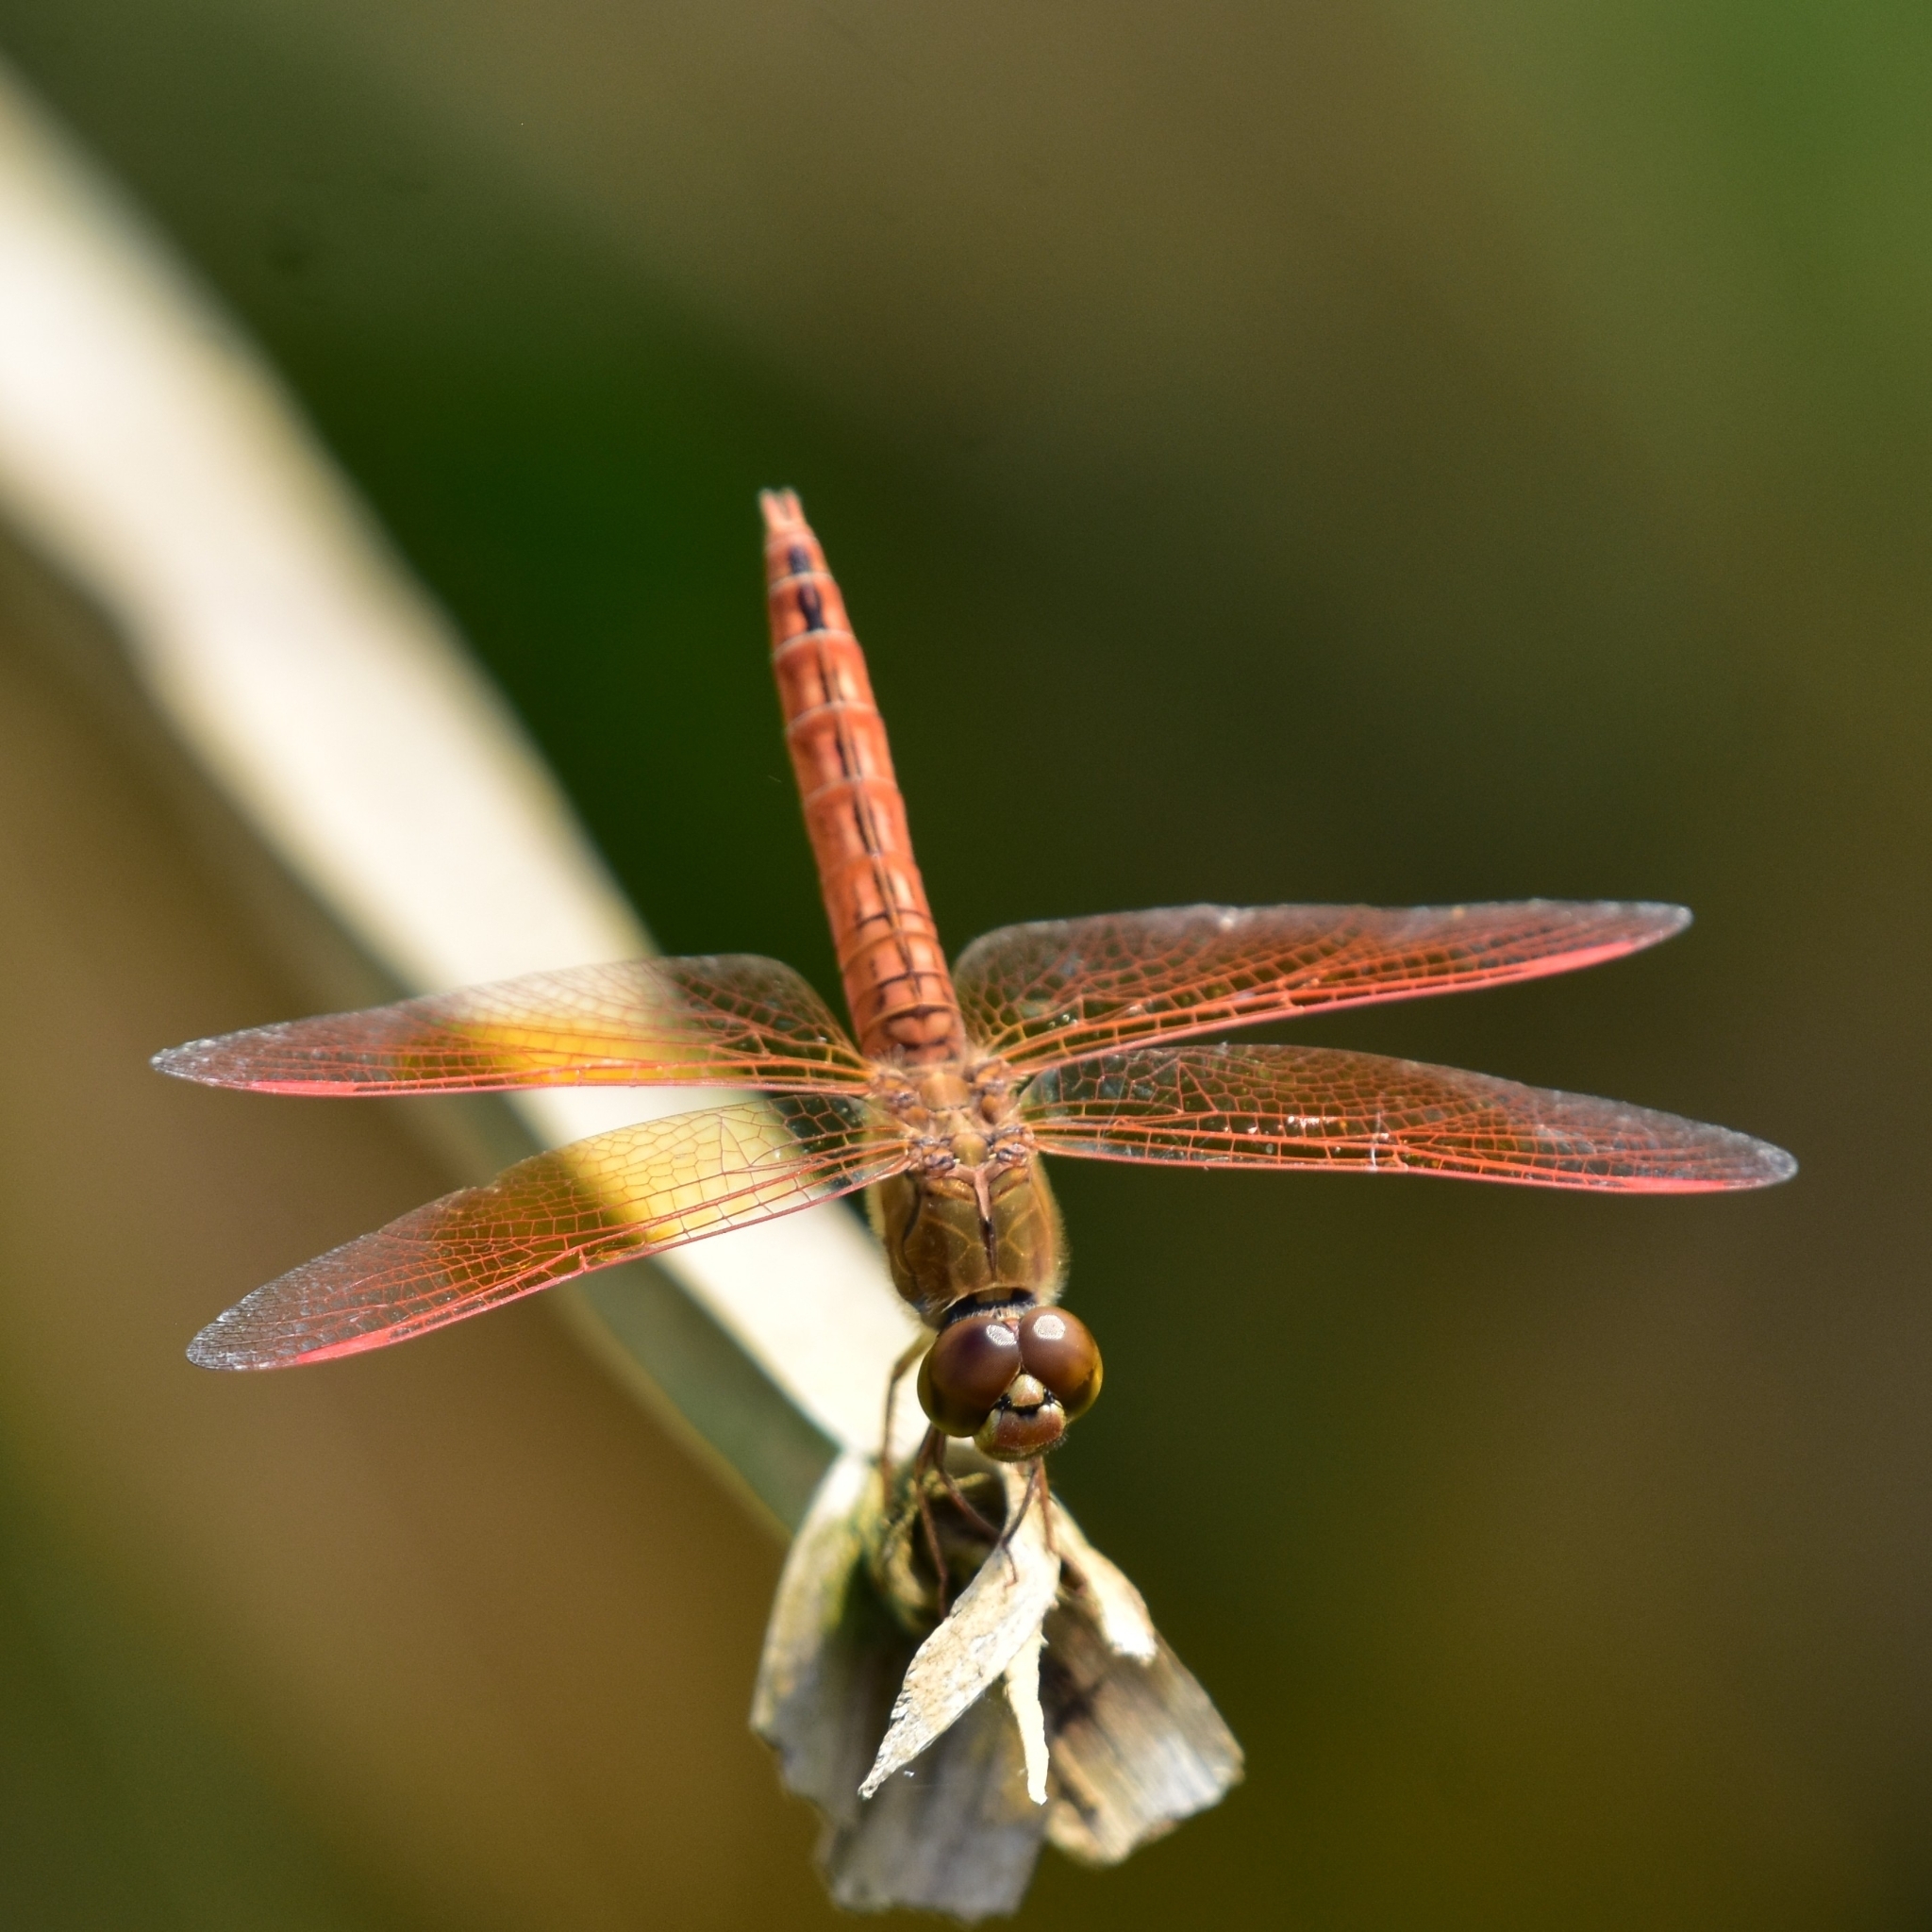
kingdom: Animalia
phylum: Arthropoda
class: Insecta
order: Odonata
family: Libellulidae
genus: Brachythemis
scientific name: Brachythemis contaminata
